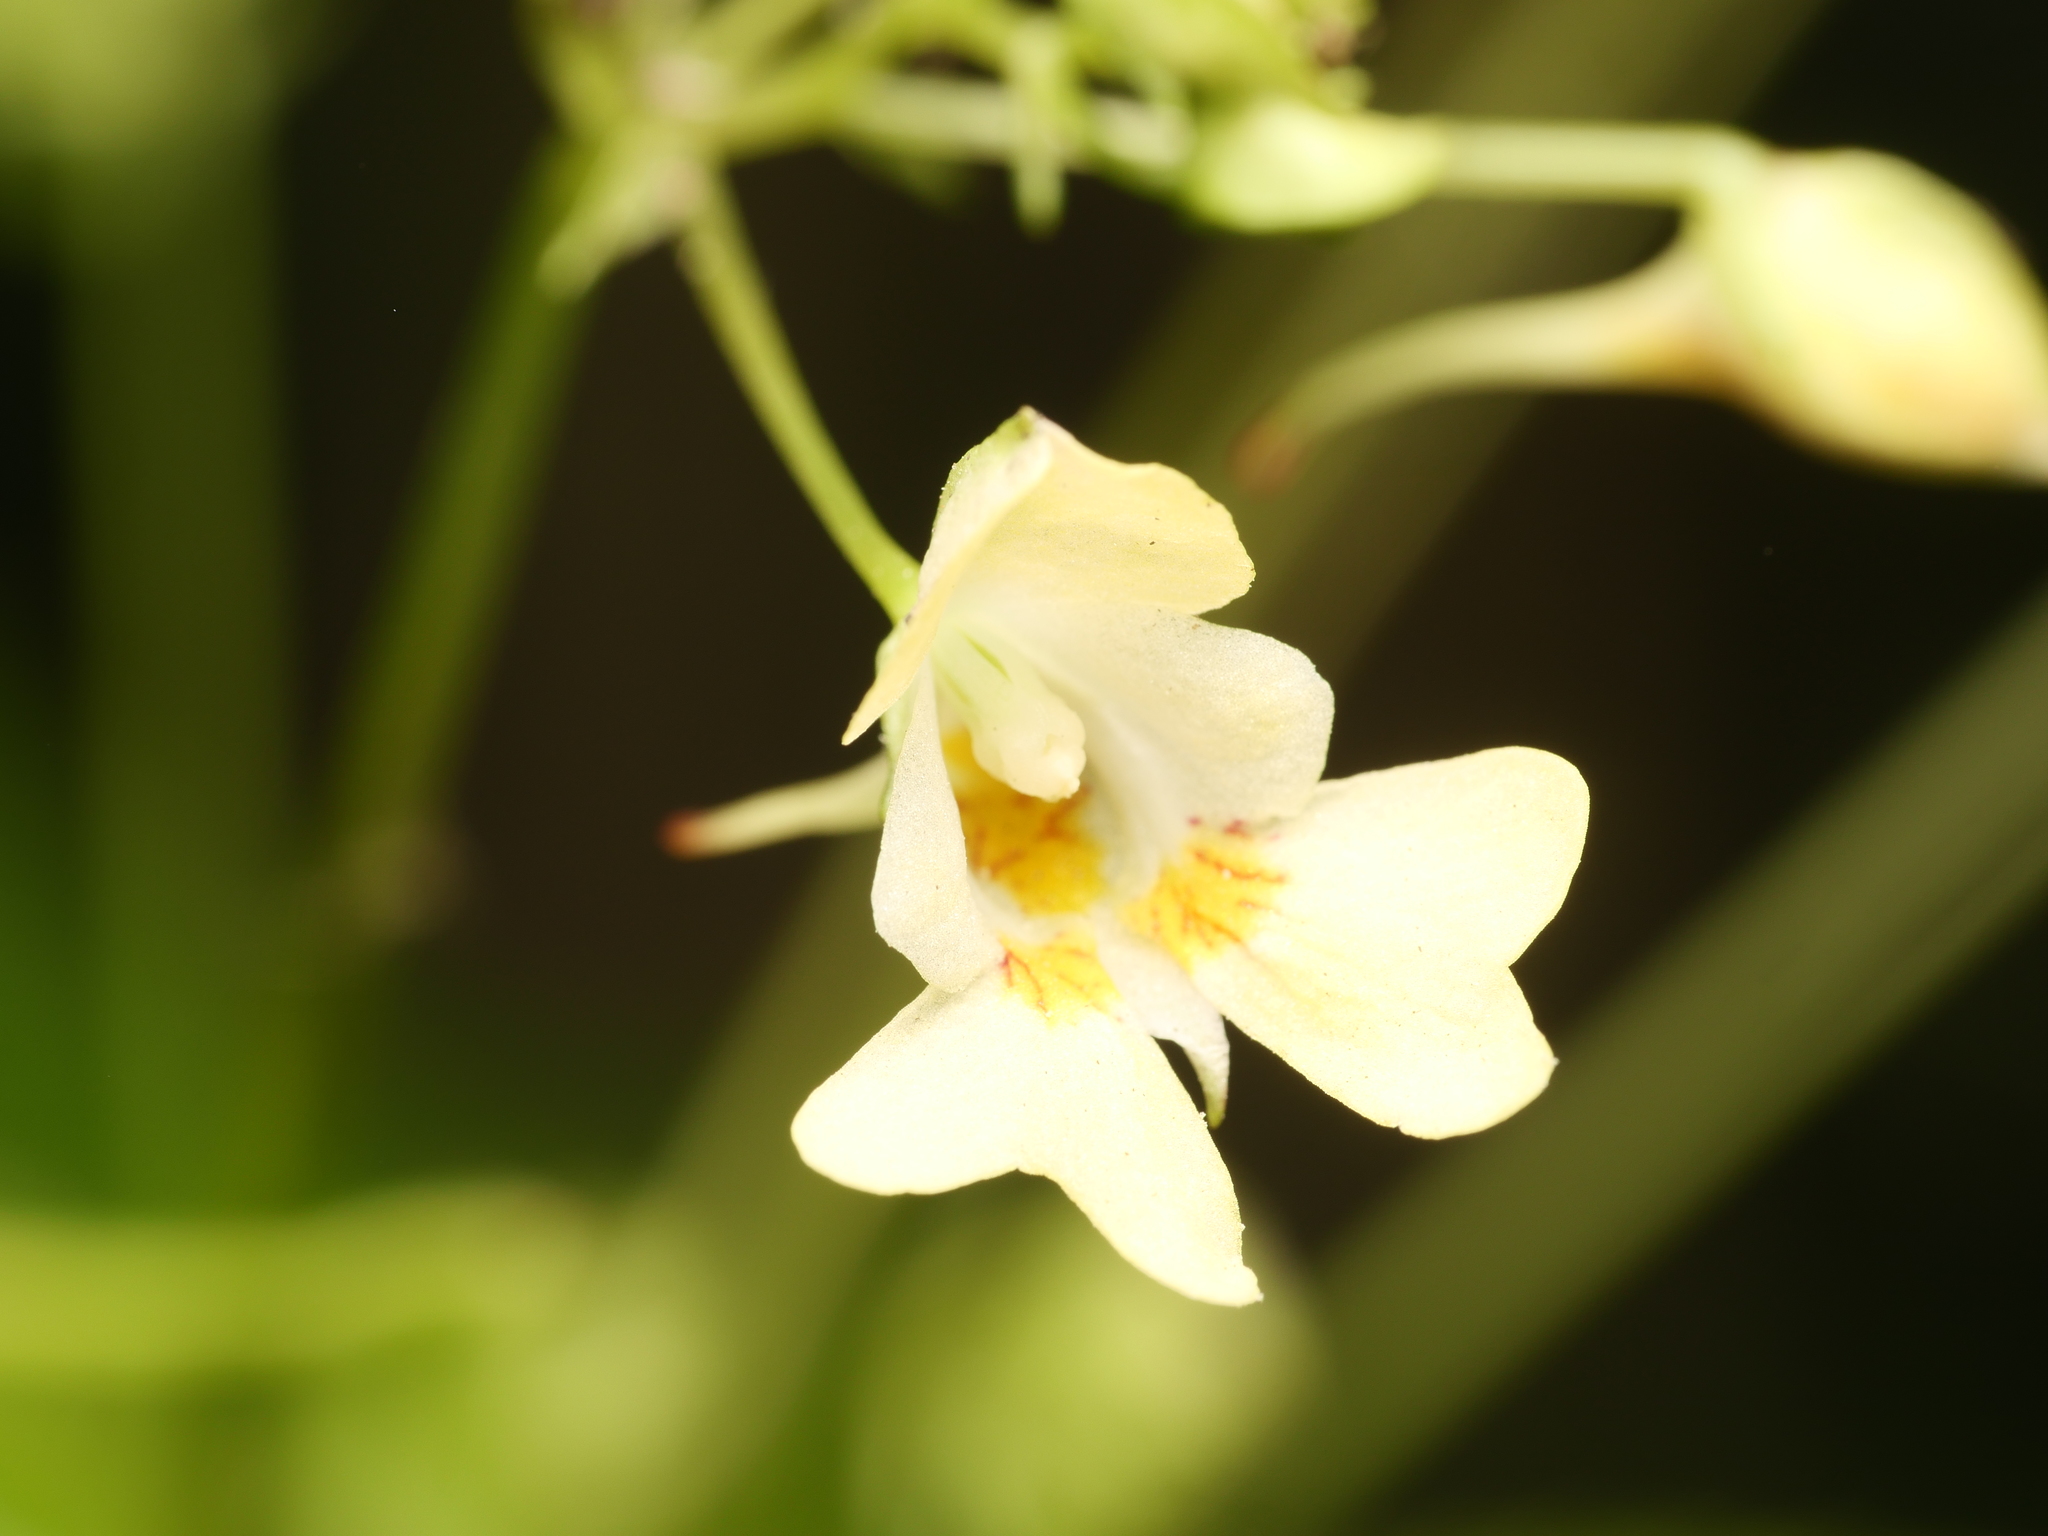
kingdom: Plantae
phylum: Tracheophyta
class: Magnoliopsida
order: Ericales
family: Balsaminaceae
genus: Impatiens
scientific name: Impatiens parviflora
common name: Small balsam
